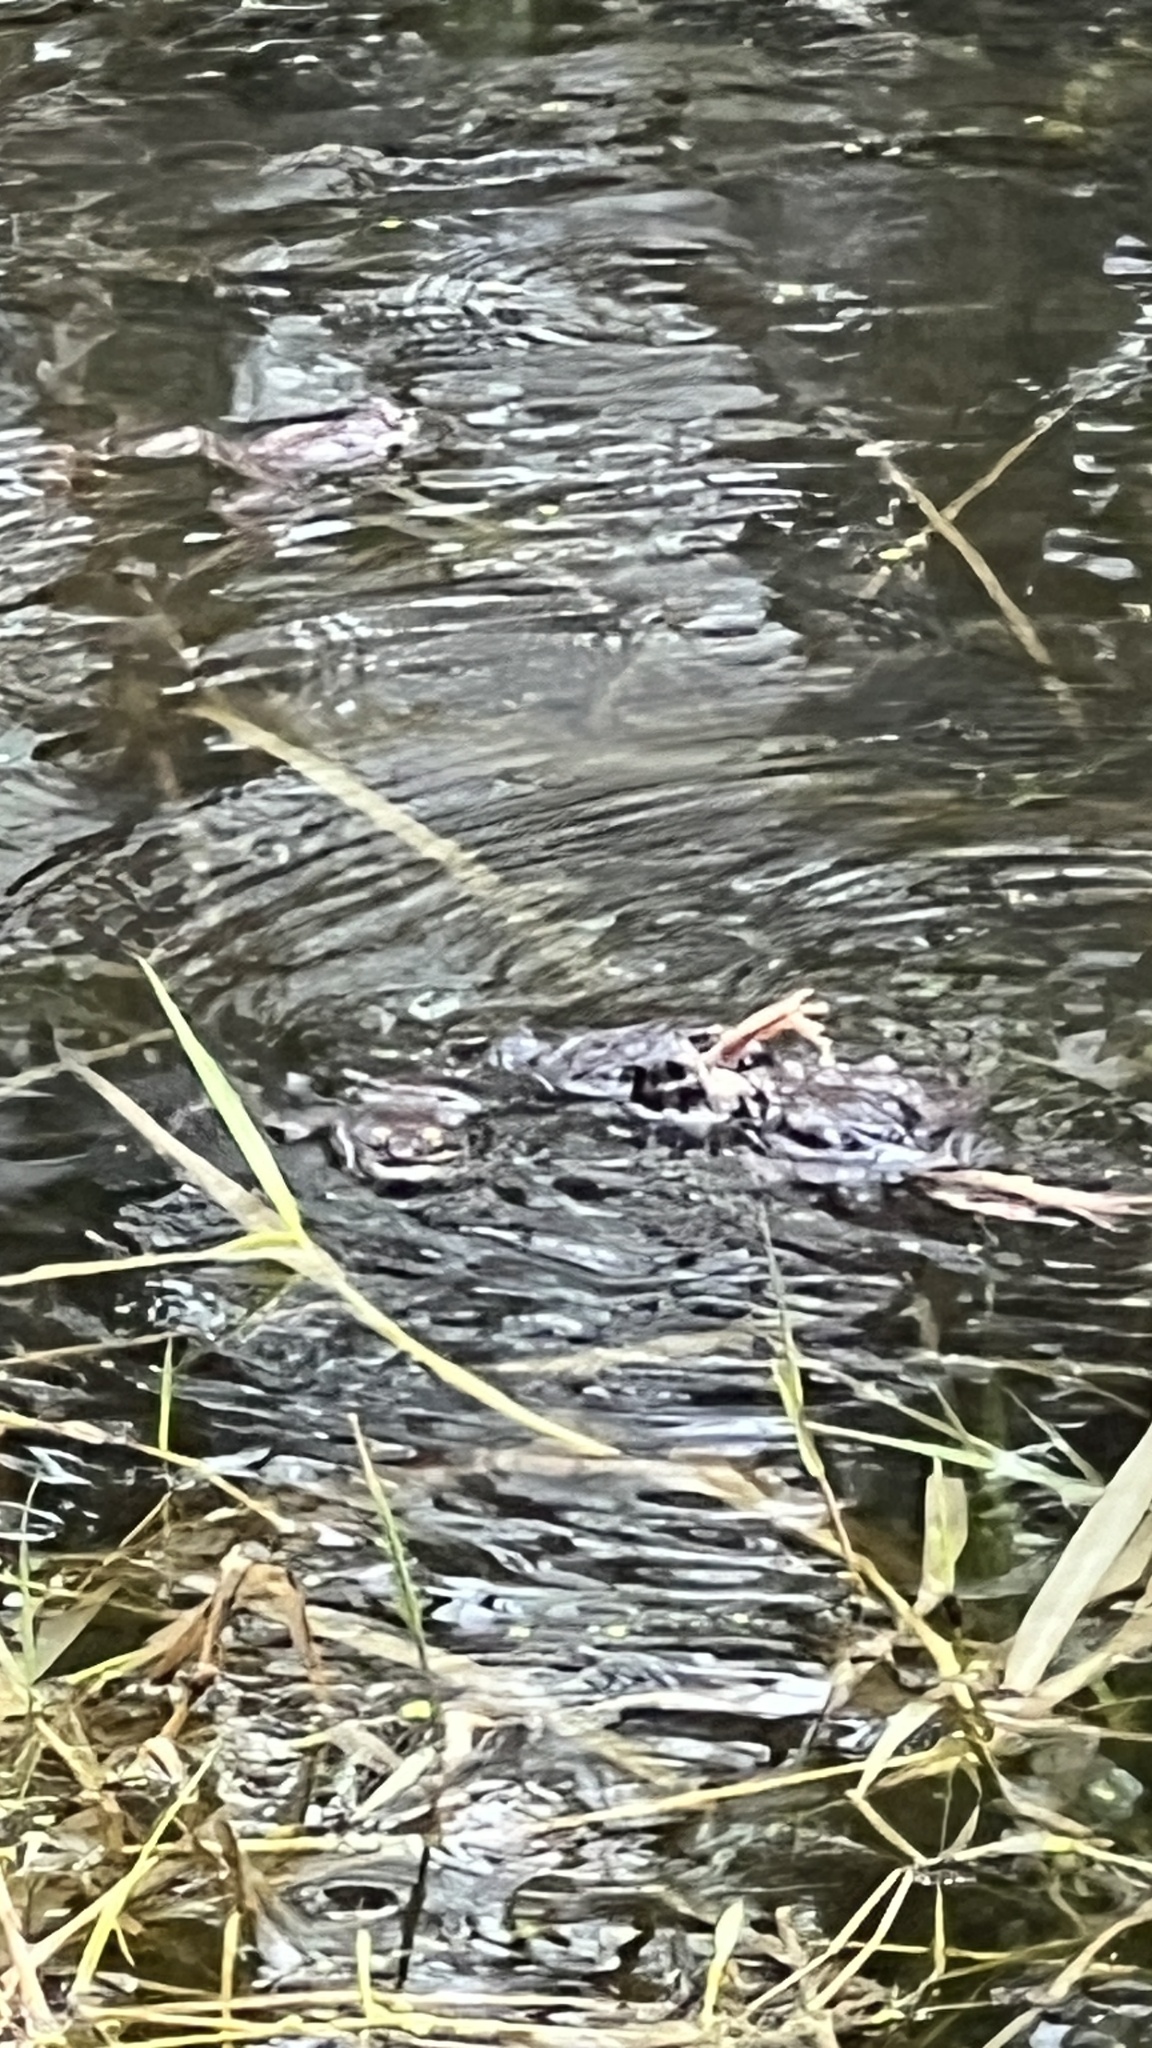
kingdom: Animalia
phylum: Chordata
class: Amphibia
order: Anura
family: Ranidae
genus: Lithobates
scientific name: Lithobates sylvaticus
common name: Wood frog
